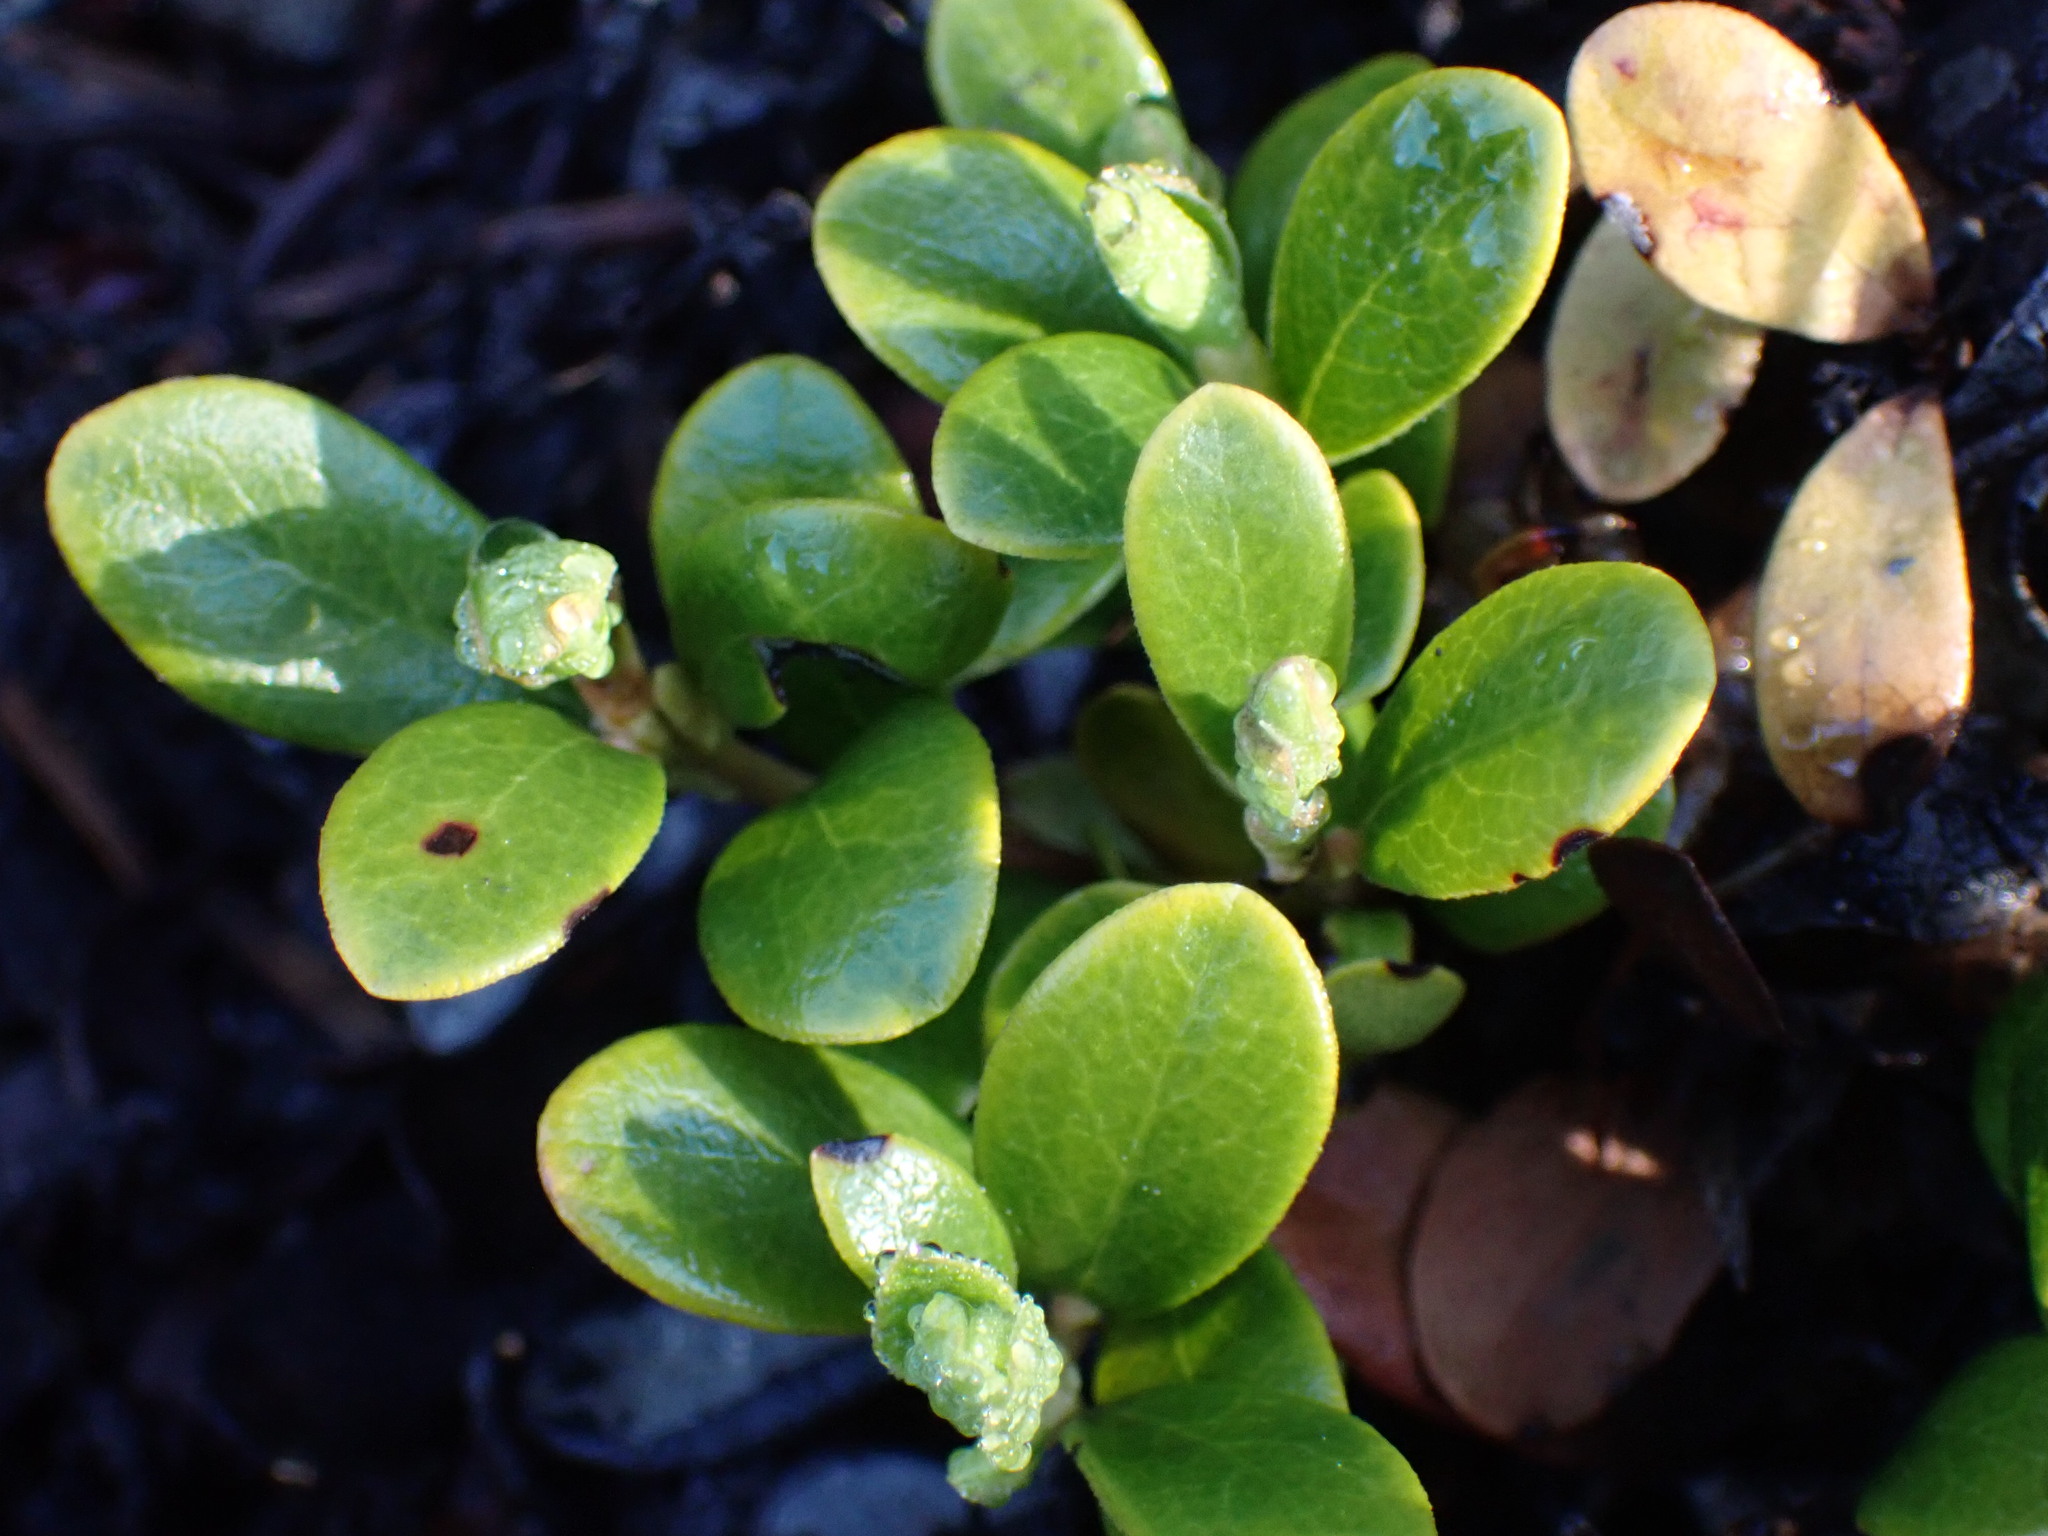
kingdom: Plantae
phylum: Tracheophyta
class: Magnoliopsida
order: Ericales
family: Ericaceae
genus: Arctostaphylos
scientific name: Arctostaphylos uva-ursi
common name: Bearberry
